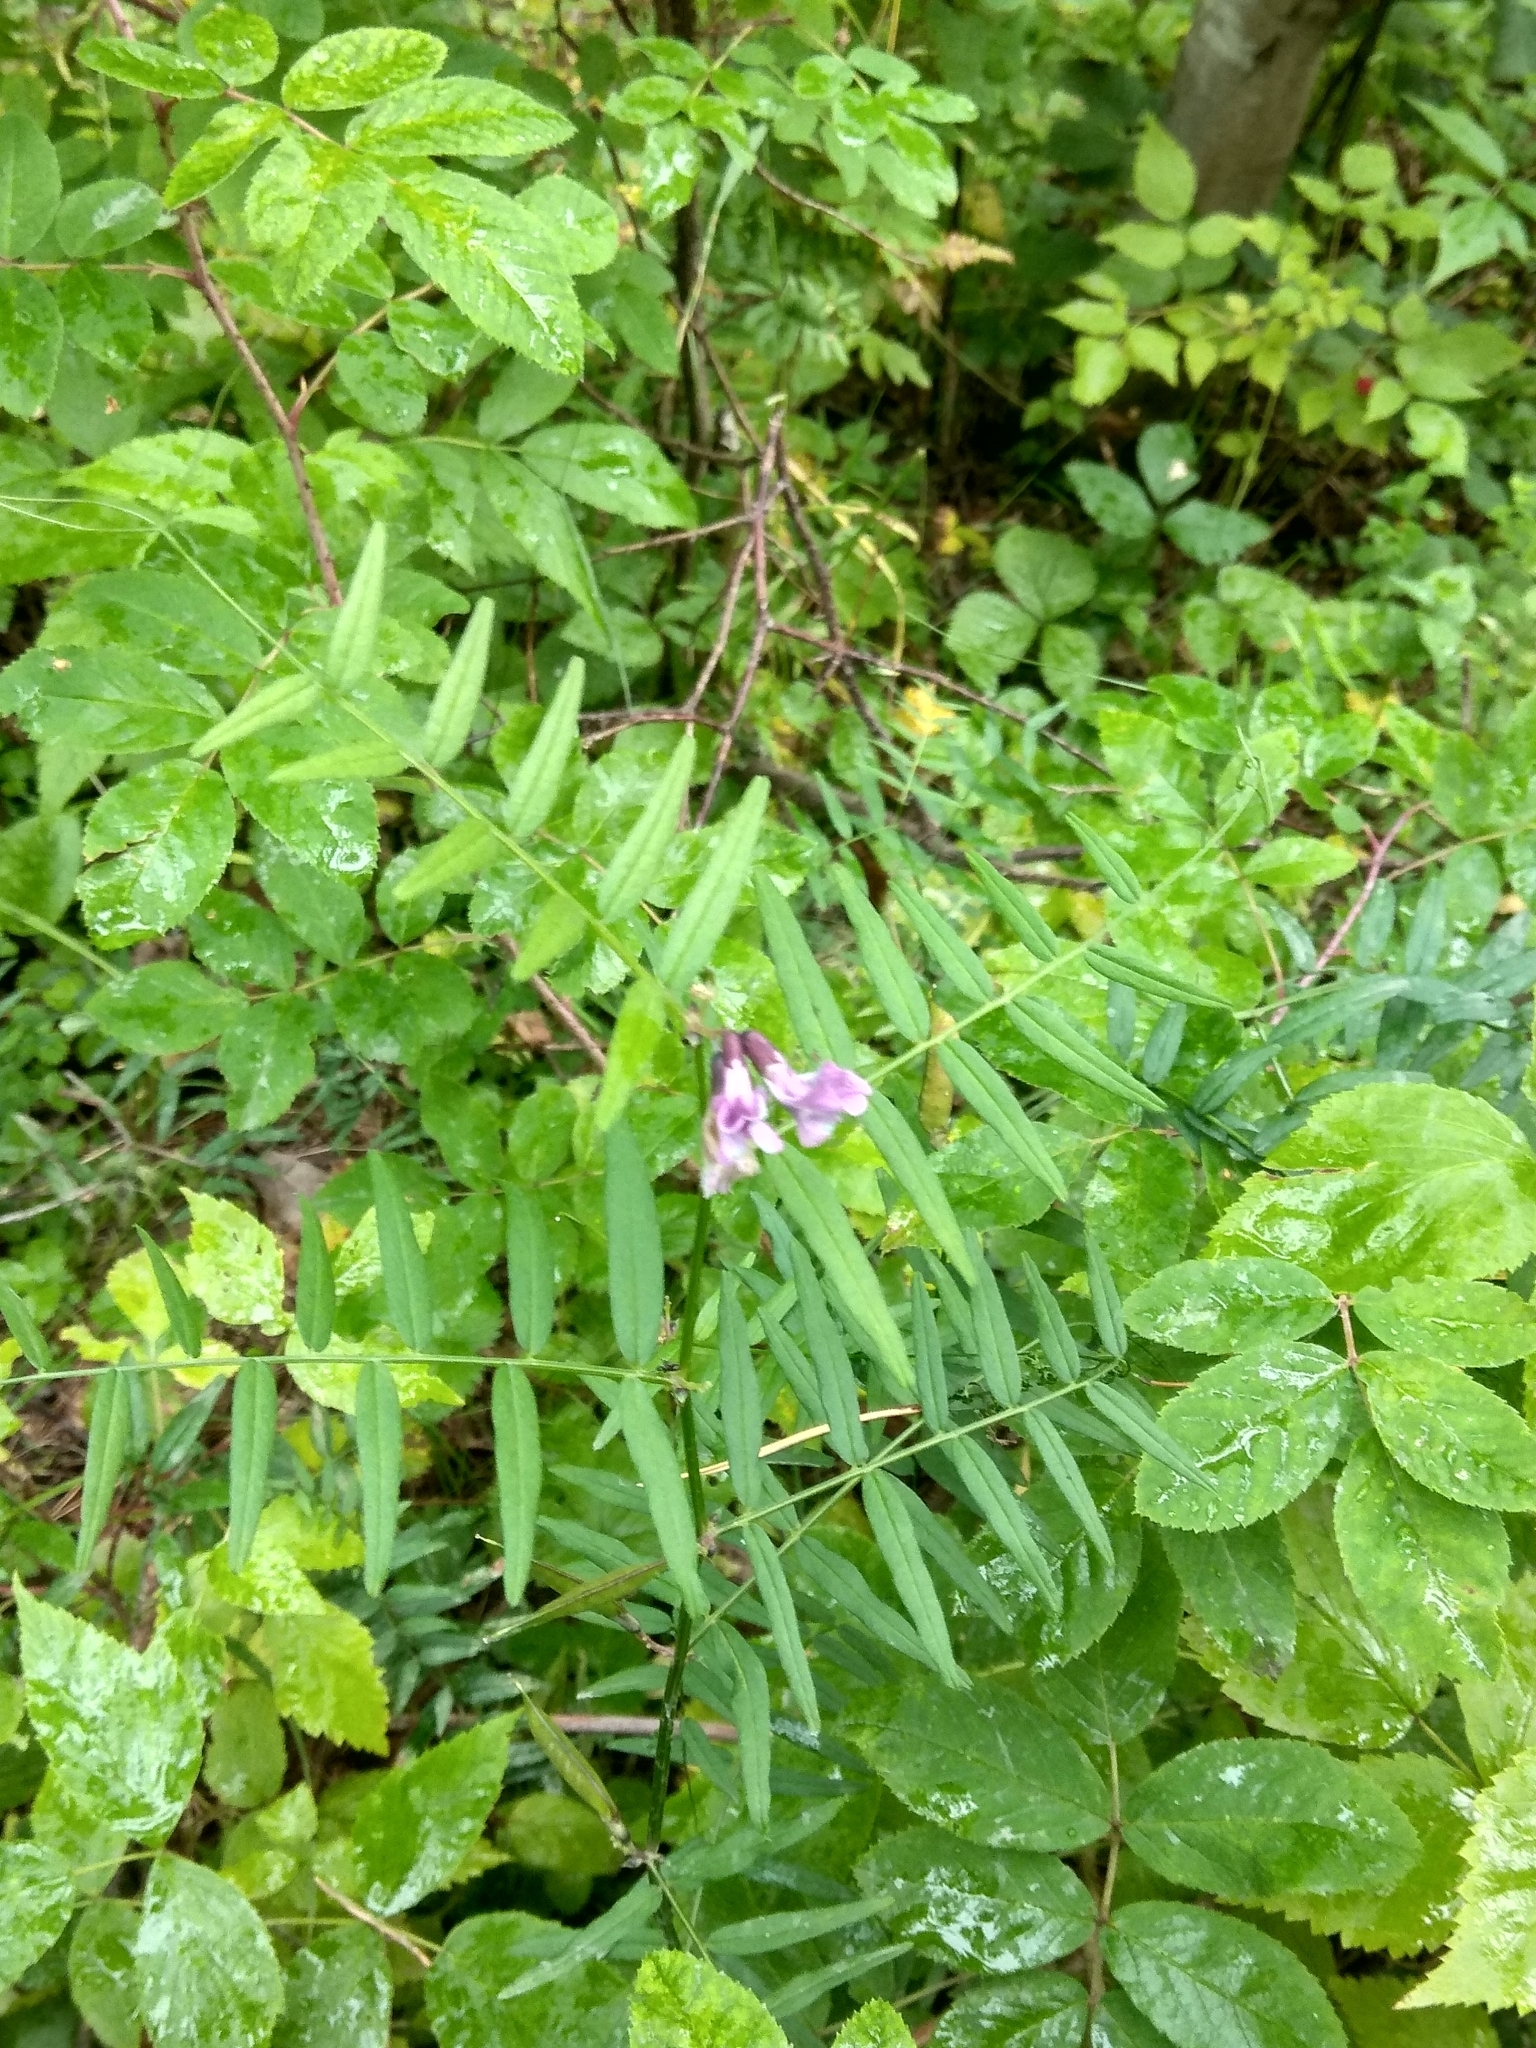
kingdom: Plantae
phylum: Tracheophyta
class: Magnoliopsida
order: Fabales
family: Fabaceae
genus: Vicia
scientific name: Vicia sepium
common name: Bush vetch
